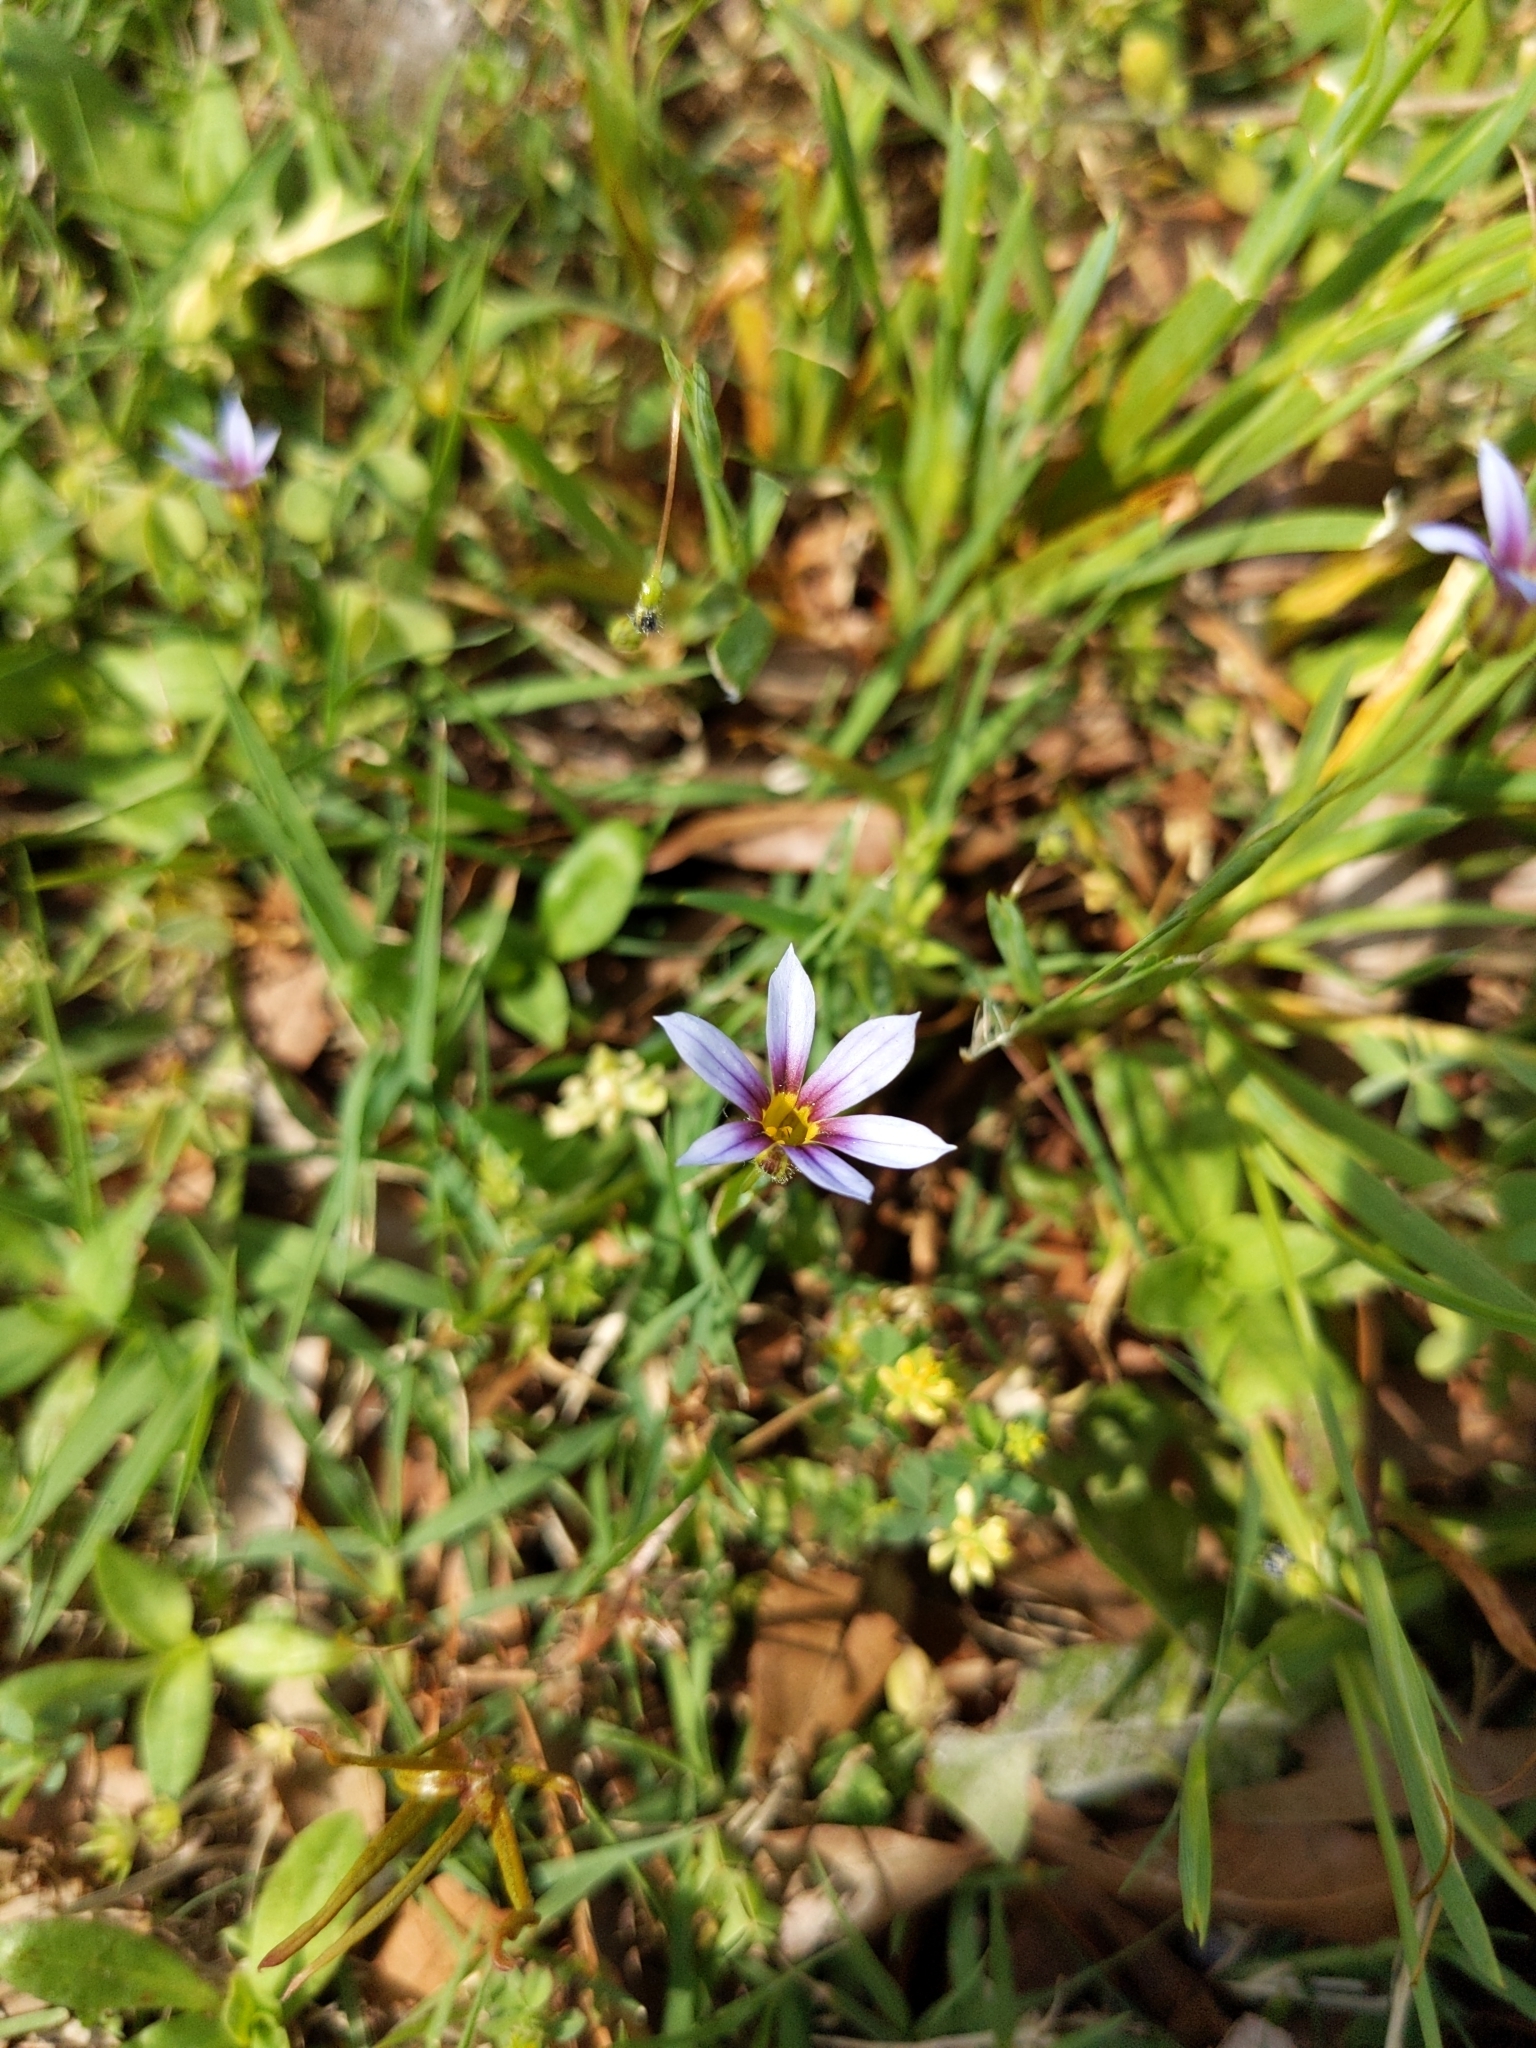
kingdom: Plantae
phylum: Tracheophyta
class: Liliopsida
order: Asparagales
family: Iridaceae
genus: Sisyrinchium
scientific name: Sisyrinchium micranthum
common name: Bermuda pigroot
